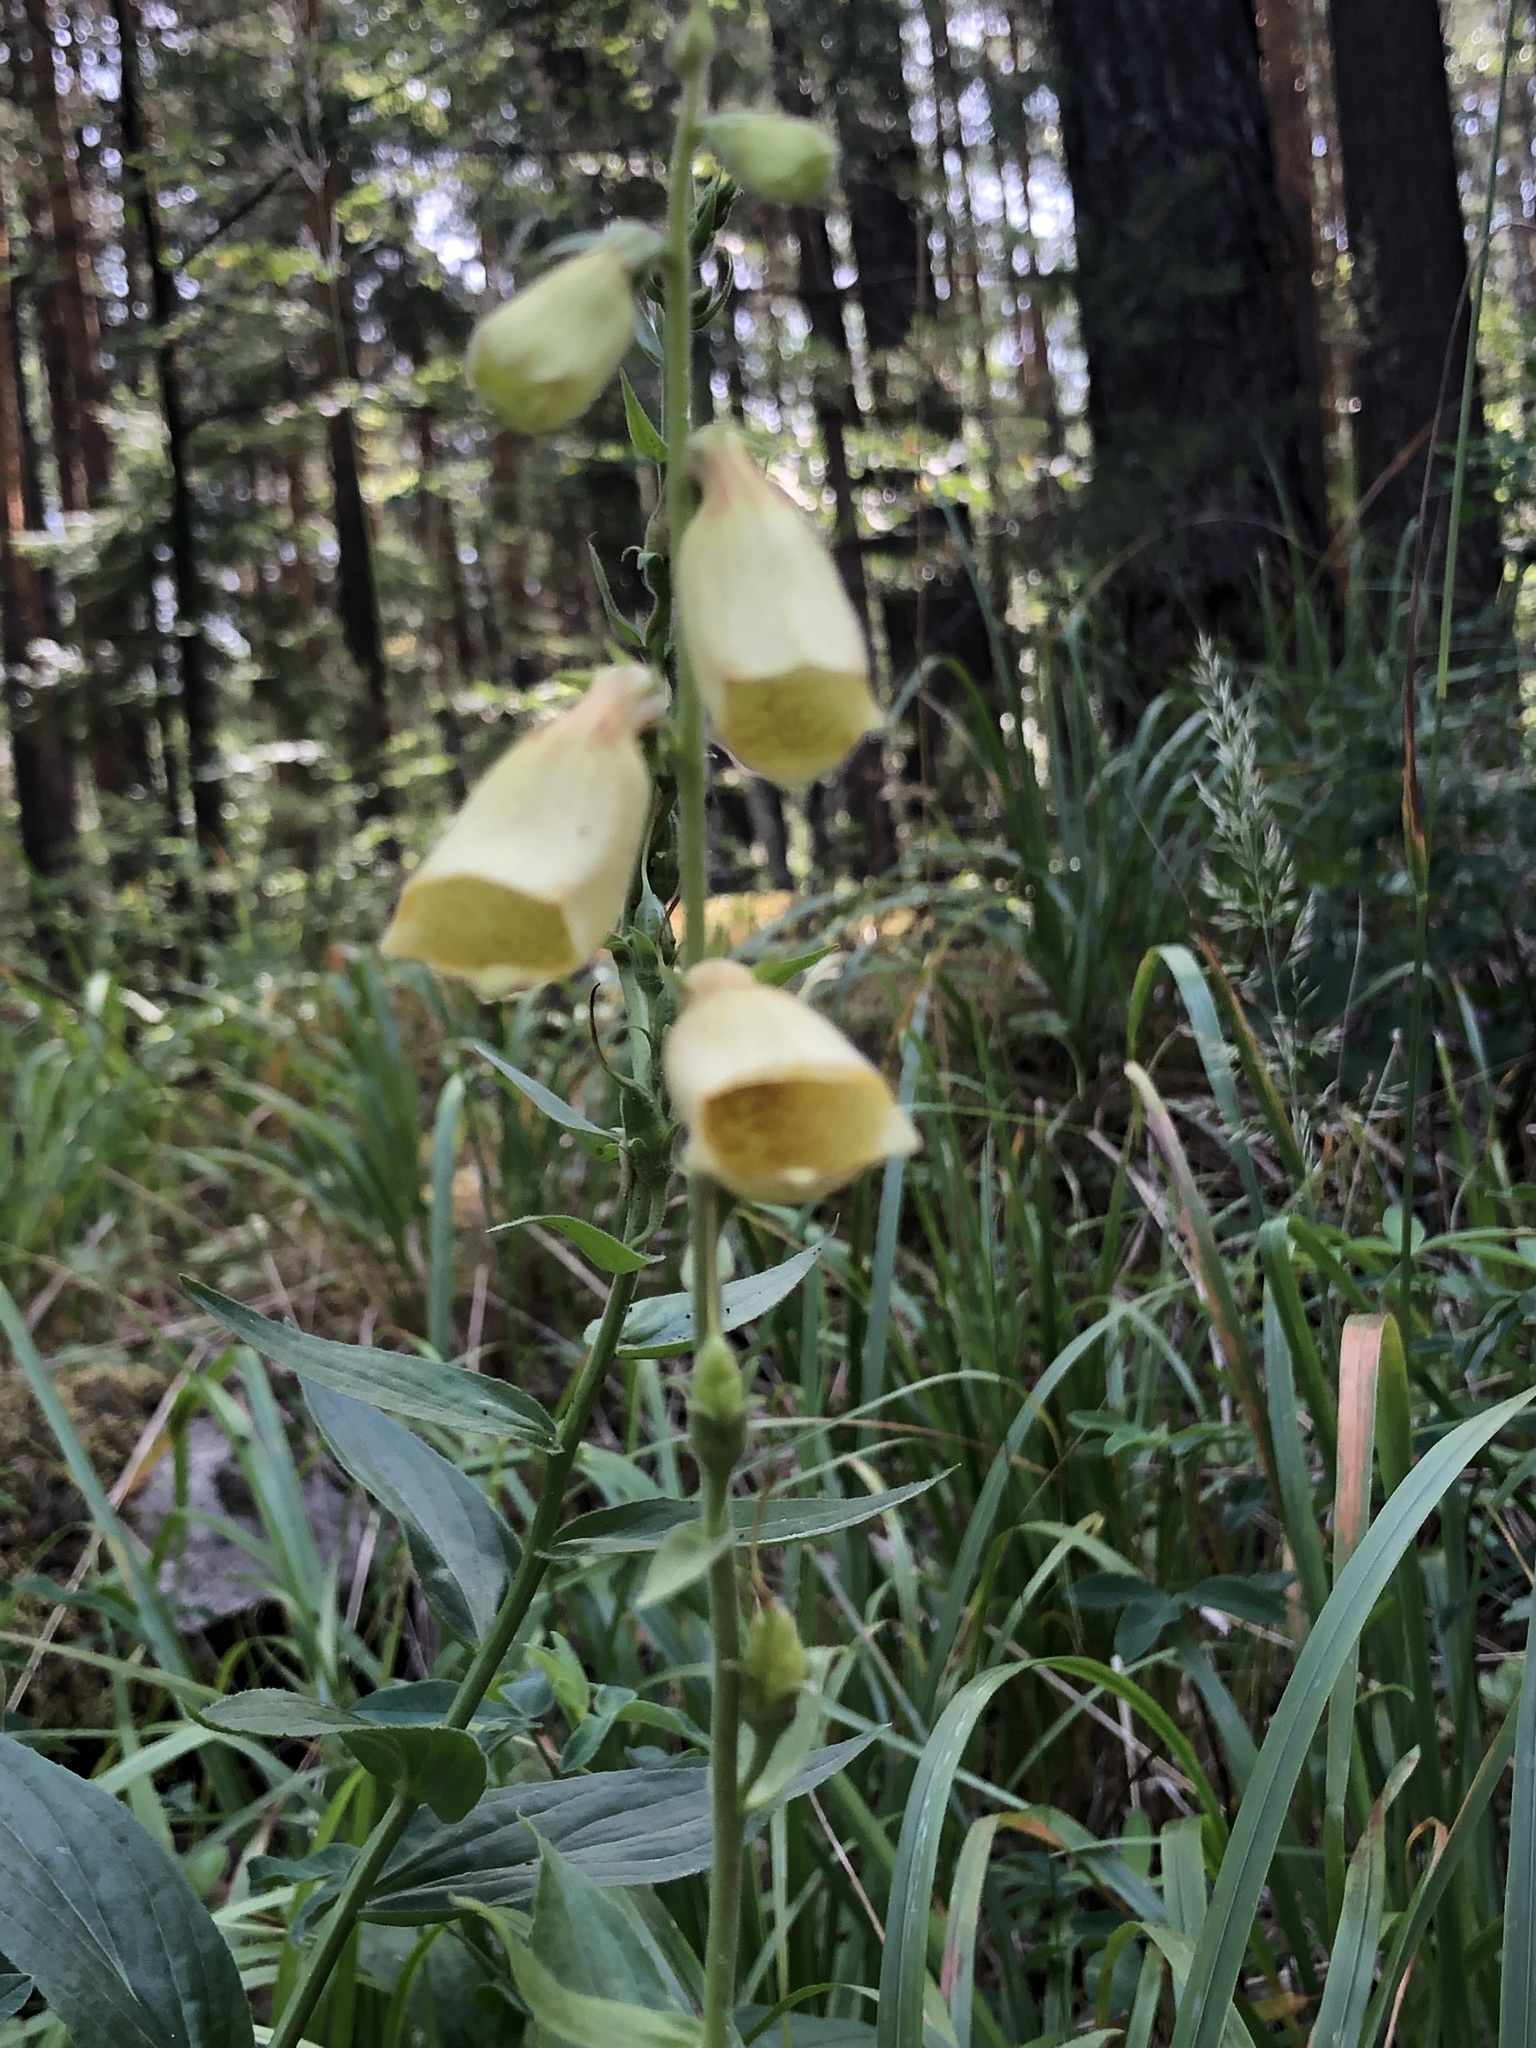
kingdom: Plantae
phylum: Tracheophyta
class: Magnoliopsida
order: Lamiales
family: Plantaginaceae
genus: Digitalis
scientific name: Digitalis grandiflora
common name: Yellow foxglove
